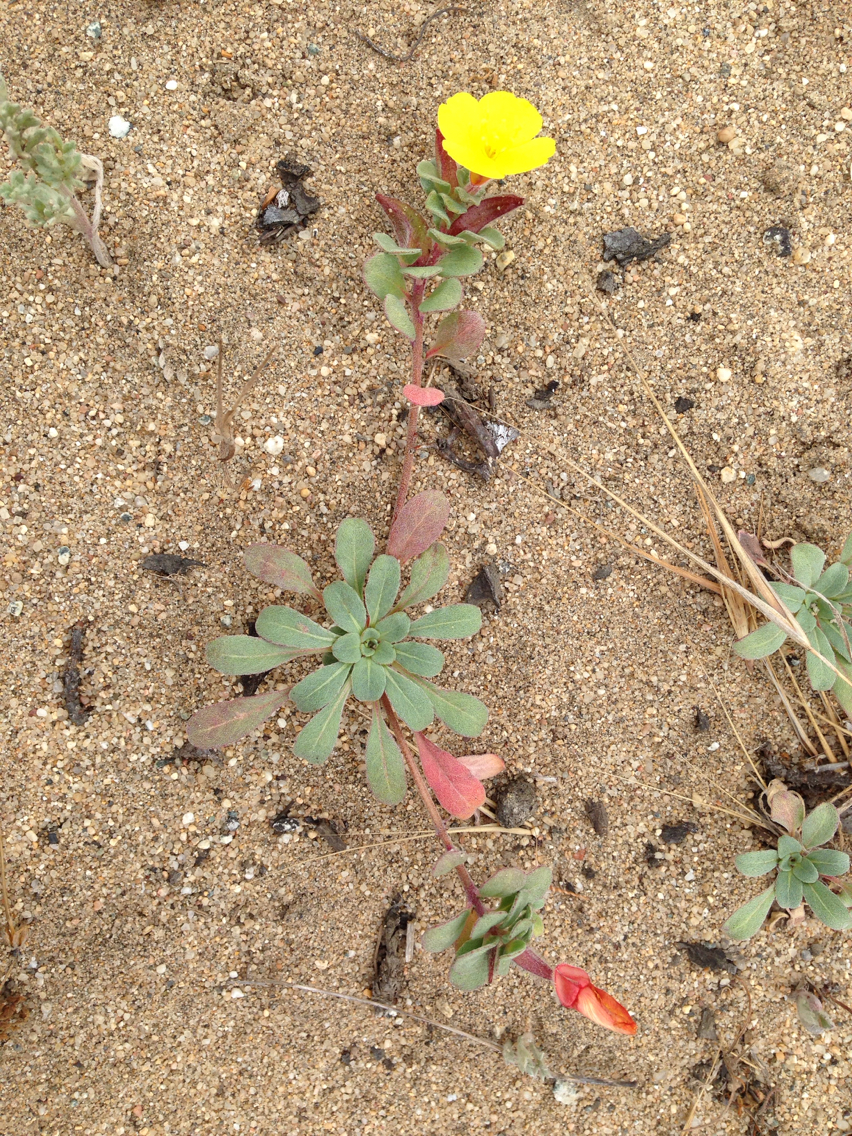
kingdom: Plantae
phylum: Tracheophyta
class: Magnoliopsida
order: Myrtales
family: Onagraceae
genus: Camissoniopsis
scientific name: Camissoniopsis cheiranthifolia
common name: Beach suncup
